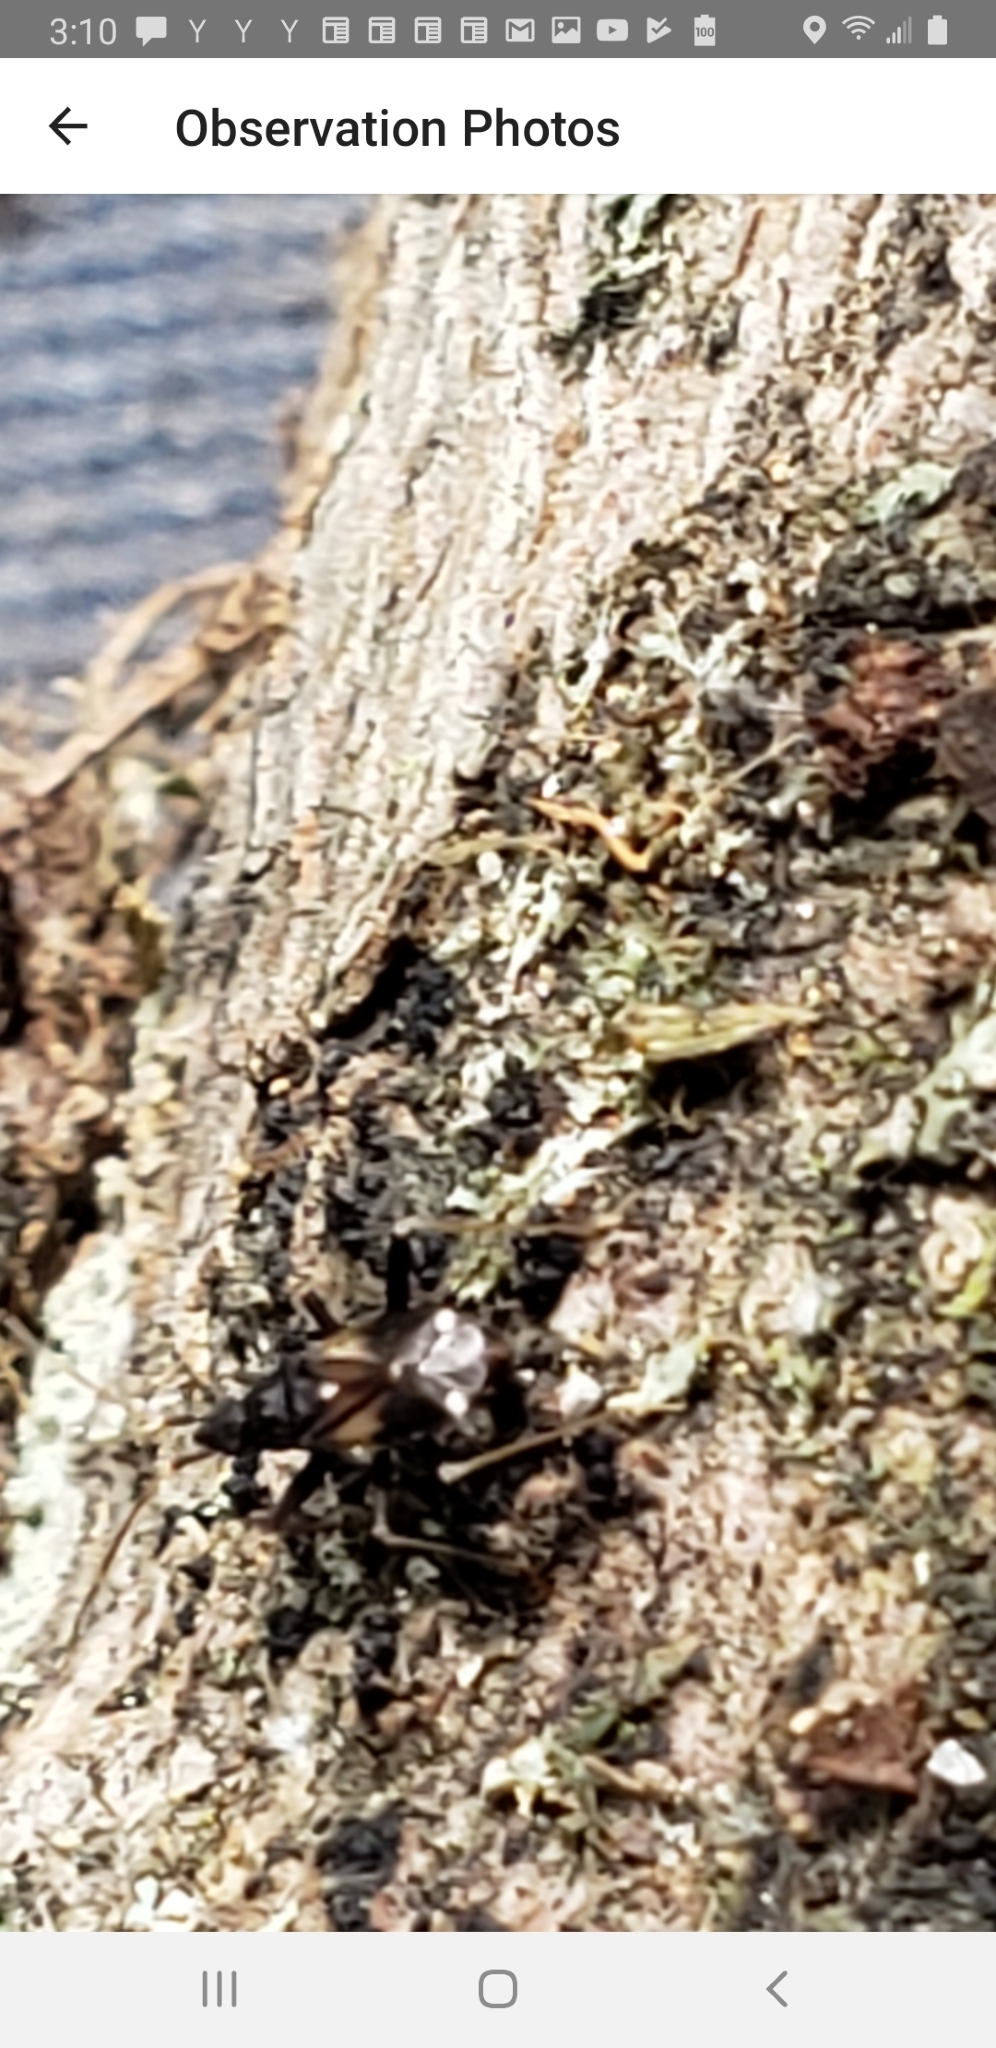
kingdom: Animalia
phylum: Arthropoda
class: Insecta
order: Hemiptera
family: Miridae
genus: Fulvius
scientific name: Fulvius slateri
